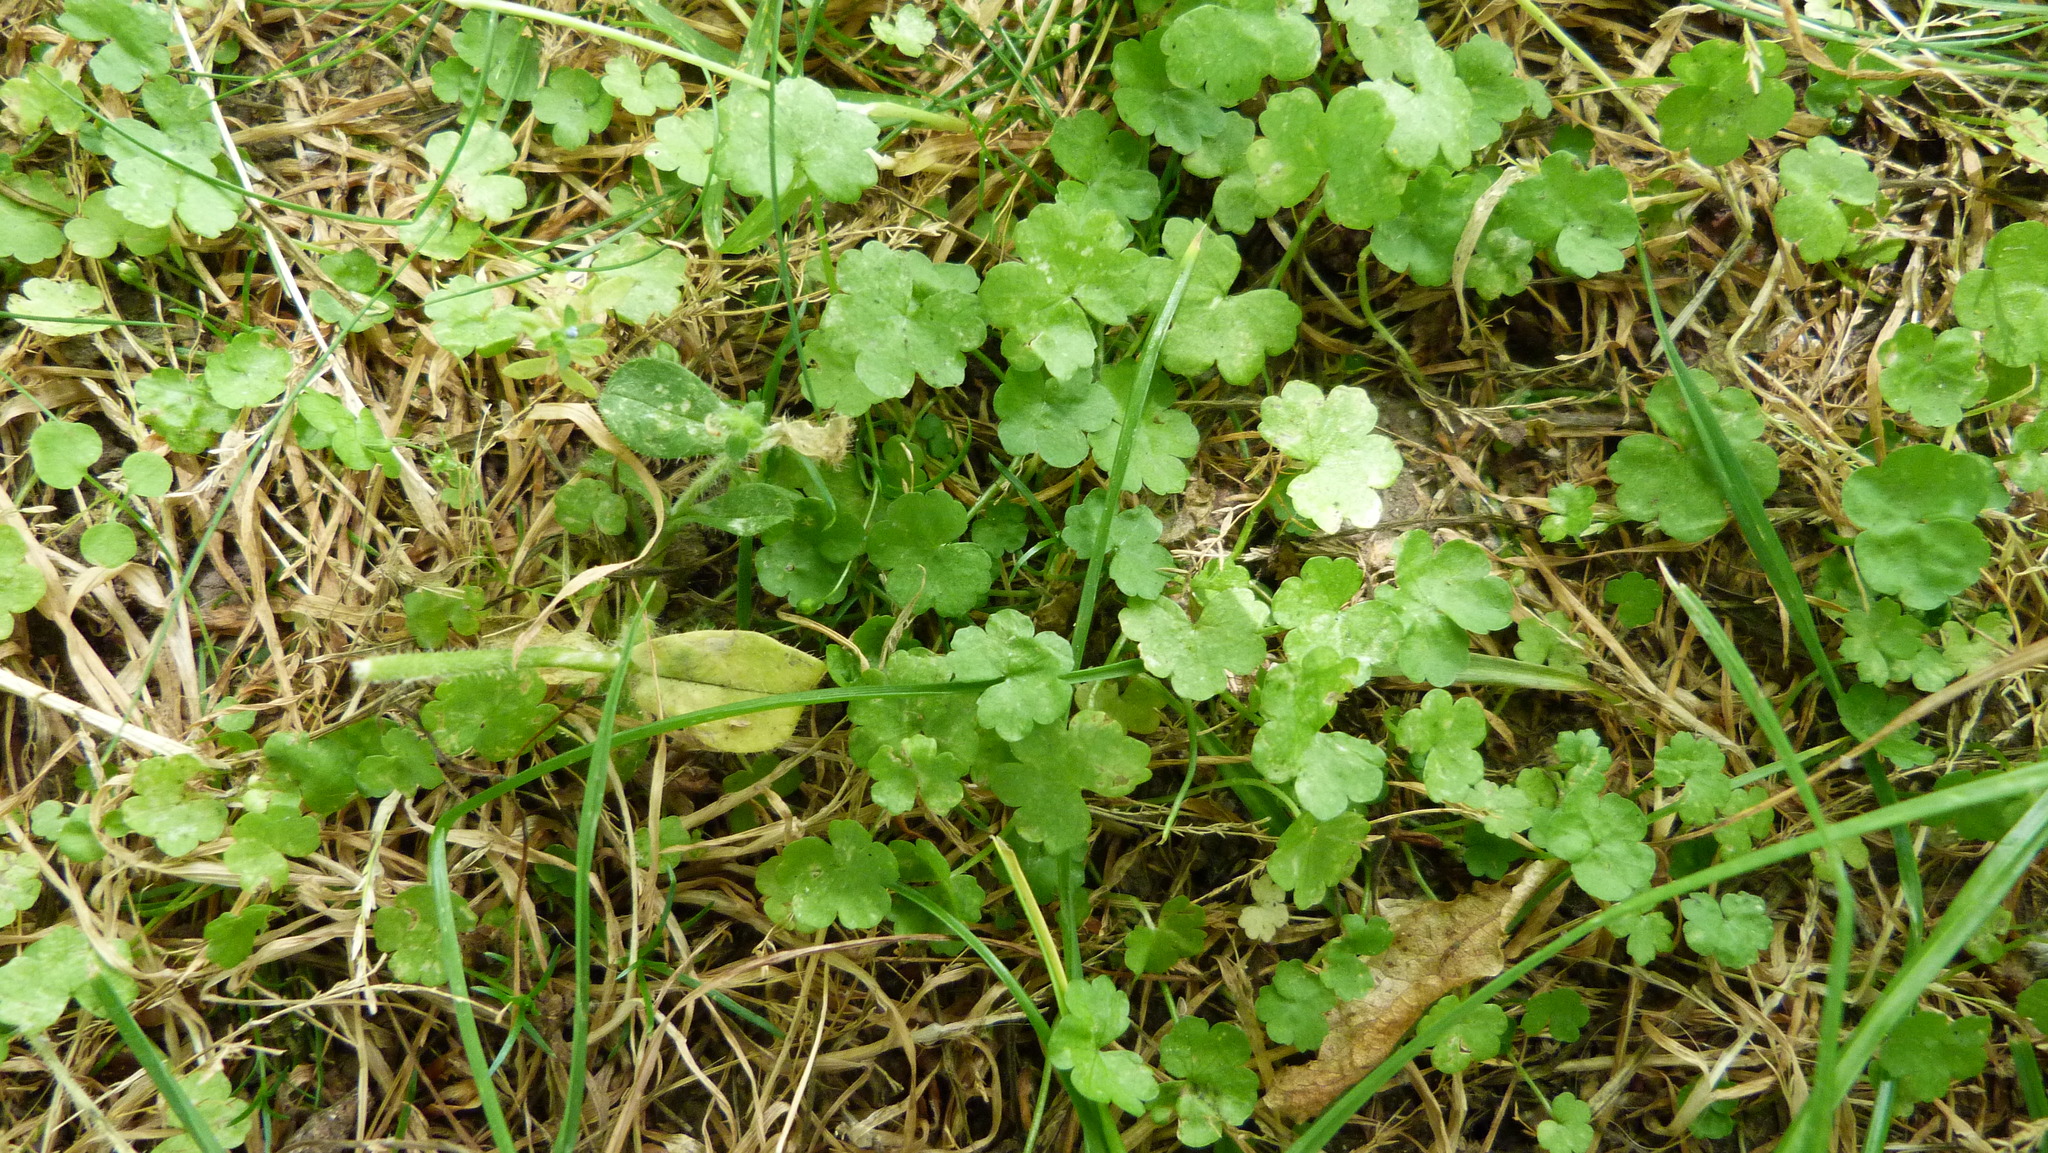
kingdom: Plantae
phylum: Tracheophyta
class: Magnoliopsida
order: Apiales
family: Araliaceae
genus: Hydrocotyle
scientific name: Hydrocotyle heteromeria
